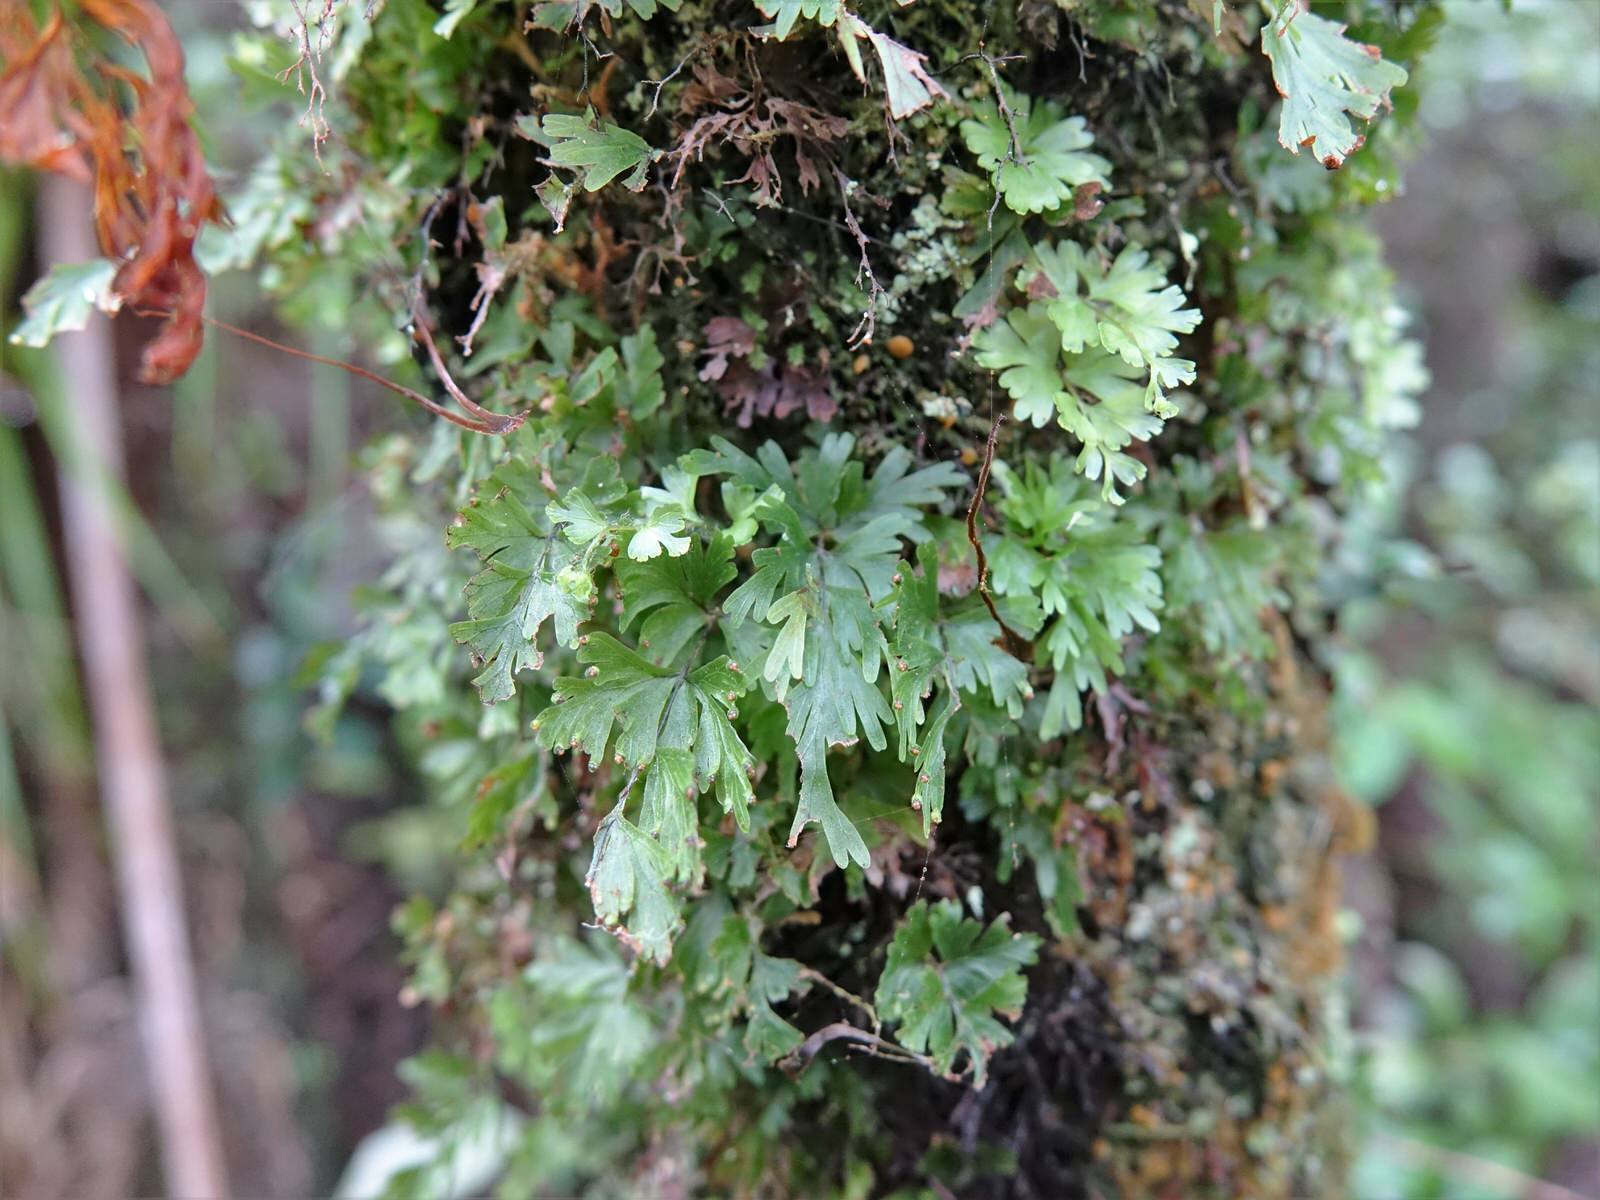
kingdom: Plantae
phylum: Tracheophyta
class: Polypodiopsida
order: Hymenophyllales
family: Hymenophyllaceae
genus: Hymenophyllum
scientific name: Hymenophyllum flabellatum
